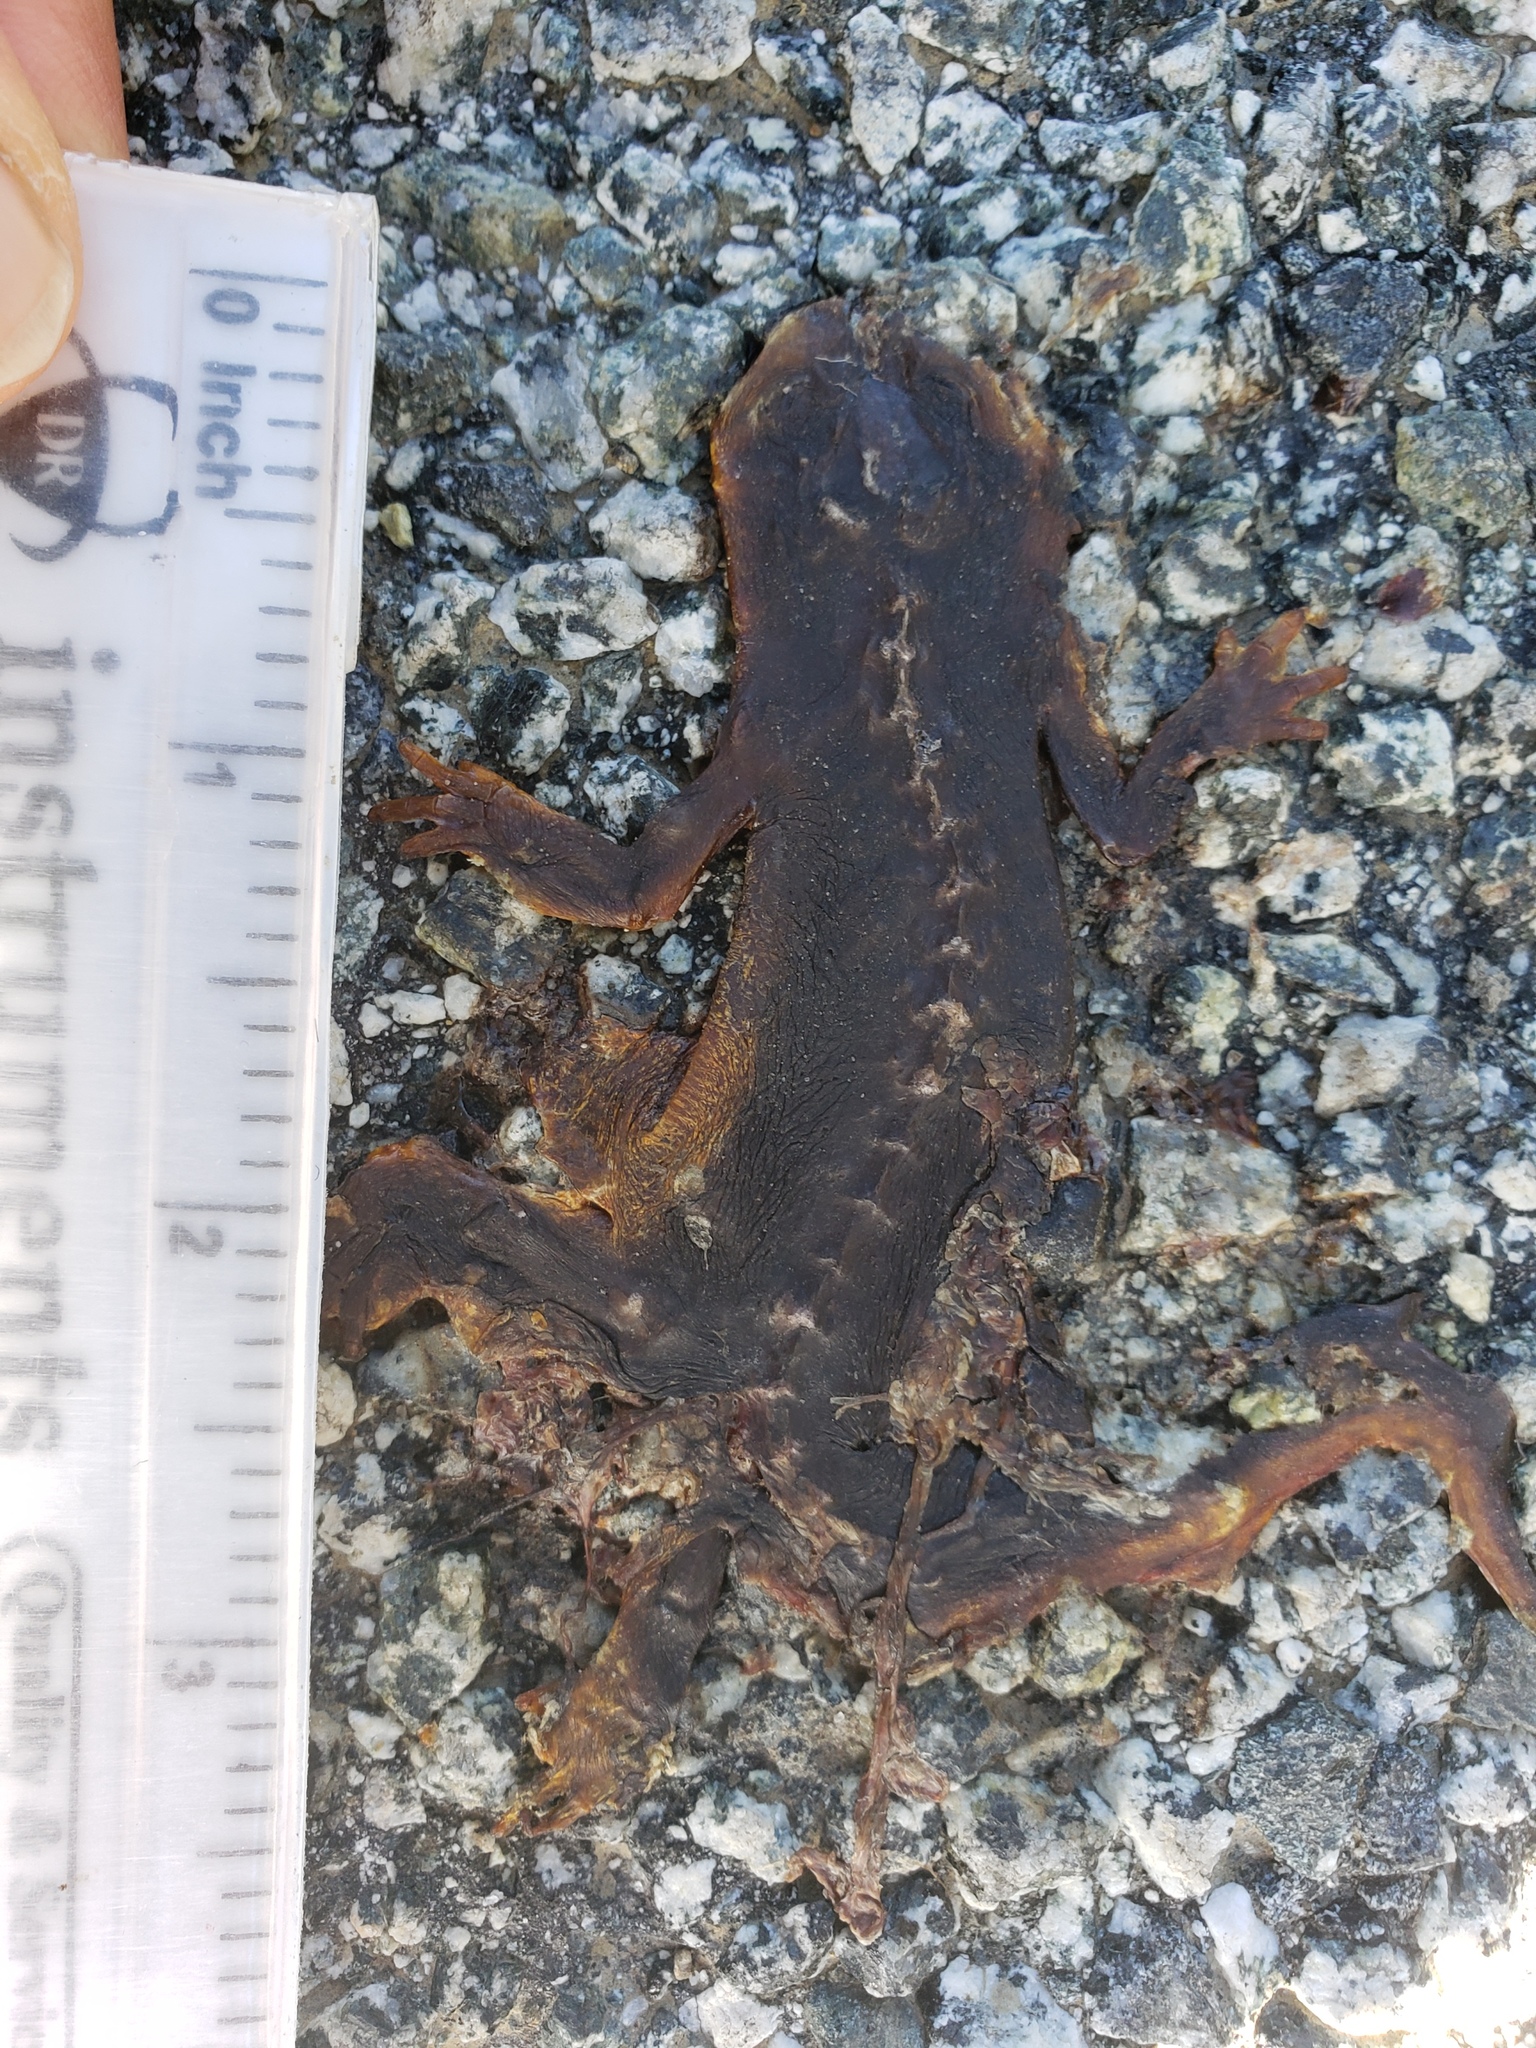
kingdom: Animalia
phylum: Chordata
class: Amphibia
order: Caudata
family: Salamandridae
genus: Taricha
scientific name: Taricha
